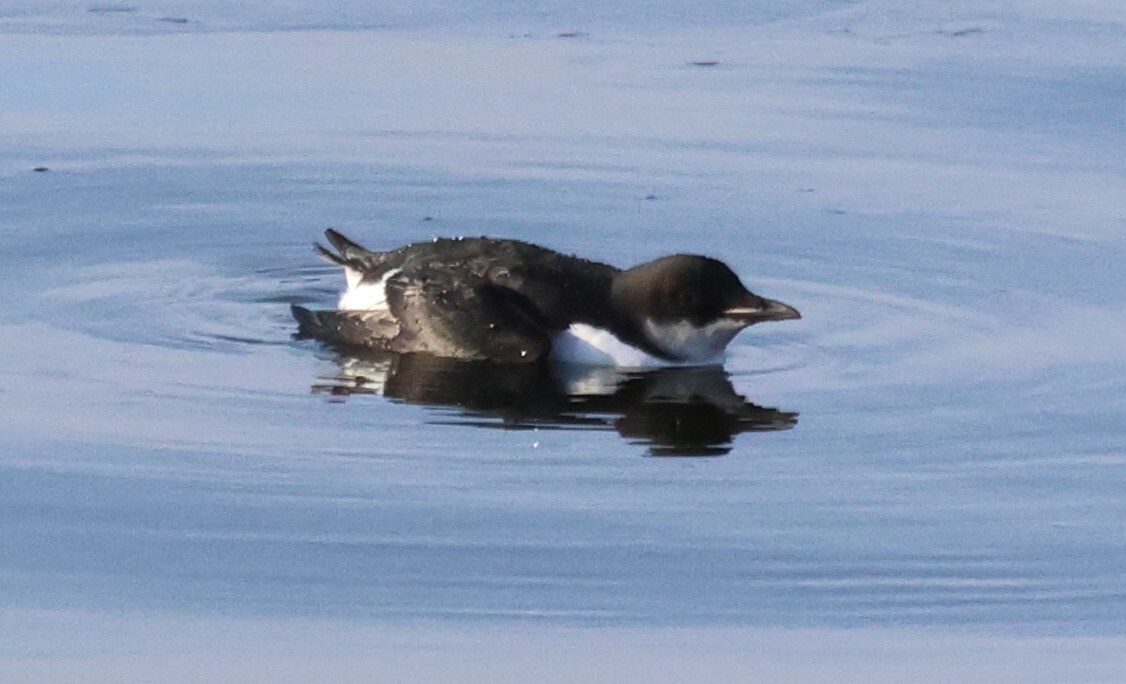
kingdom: Animalia
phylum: Chordata
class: Aves
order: Charadriiformes
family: Alcidae
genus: Uria
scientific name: Uria lomvia
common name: Thick-billed murre
